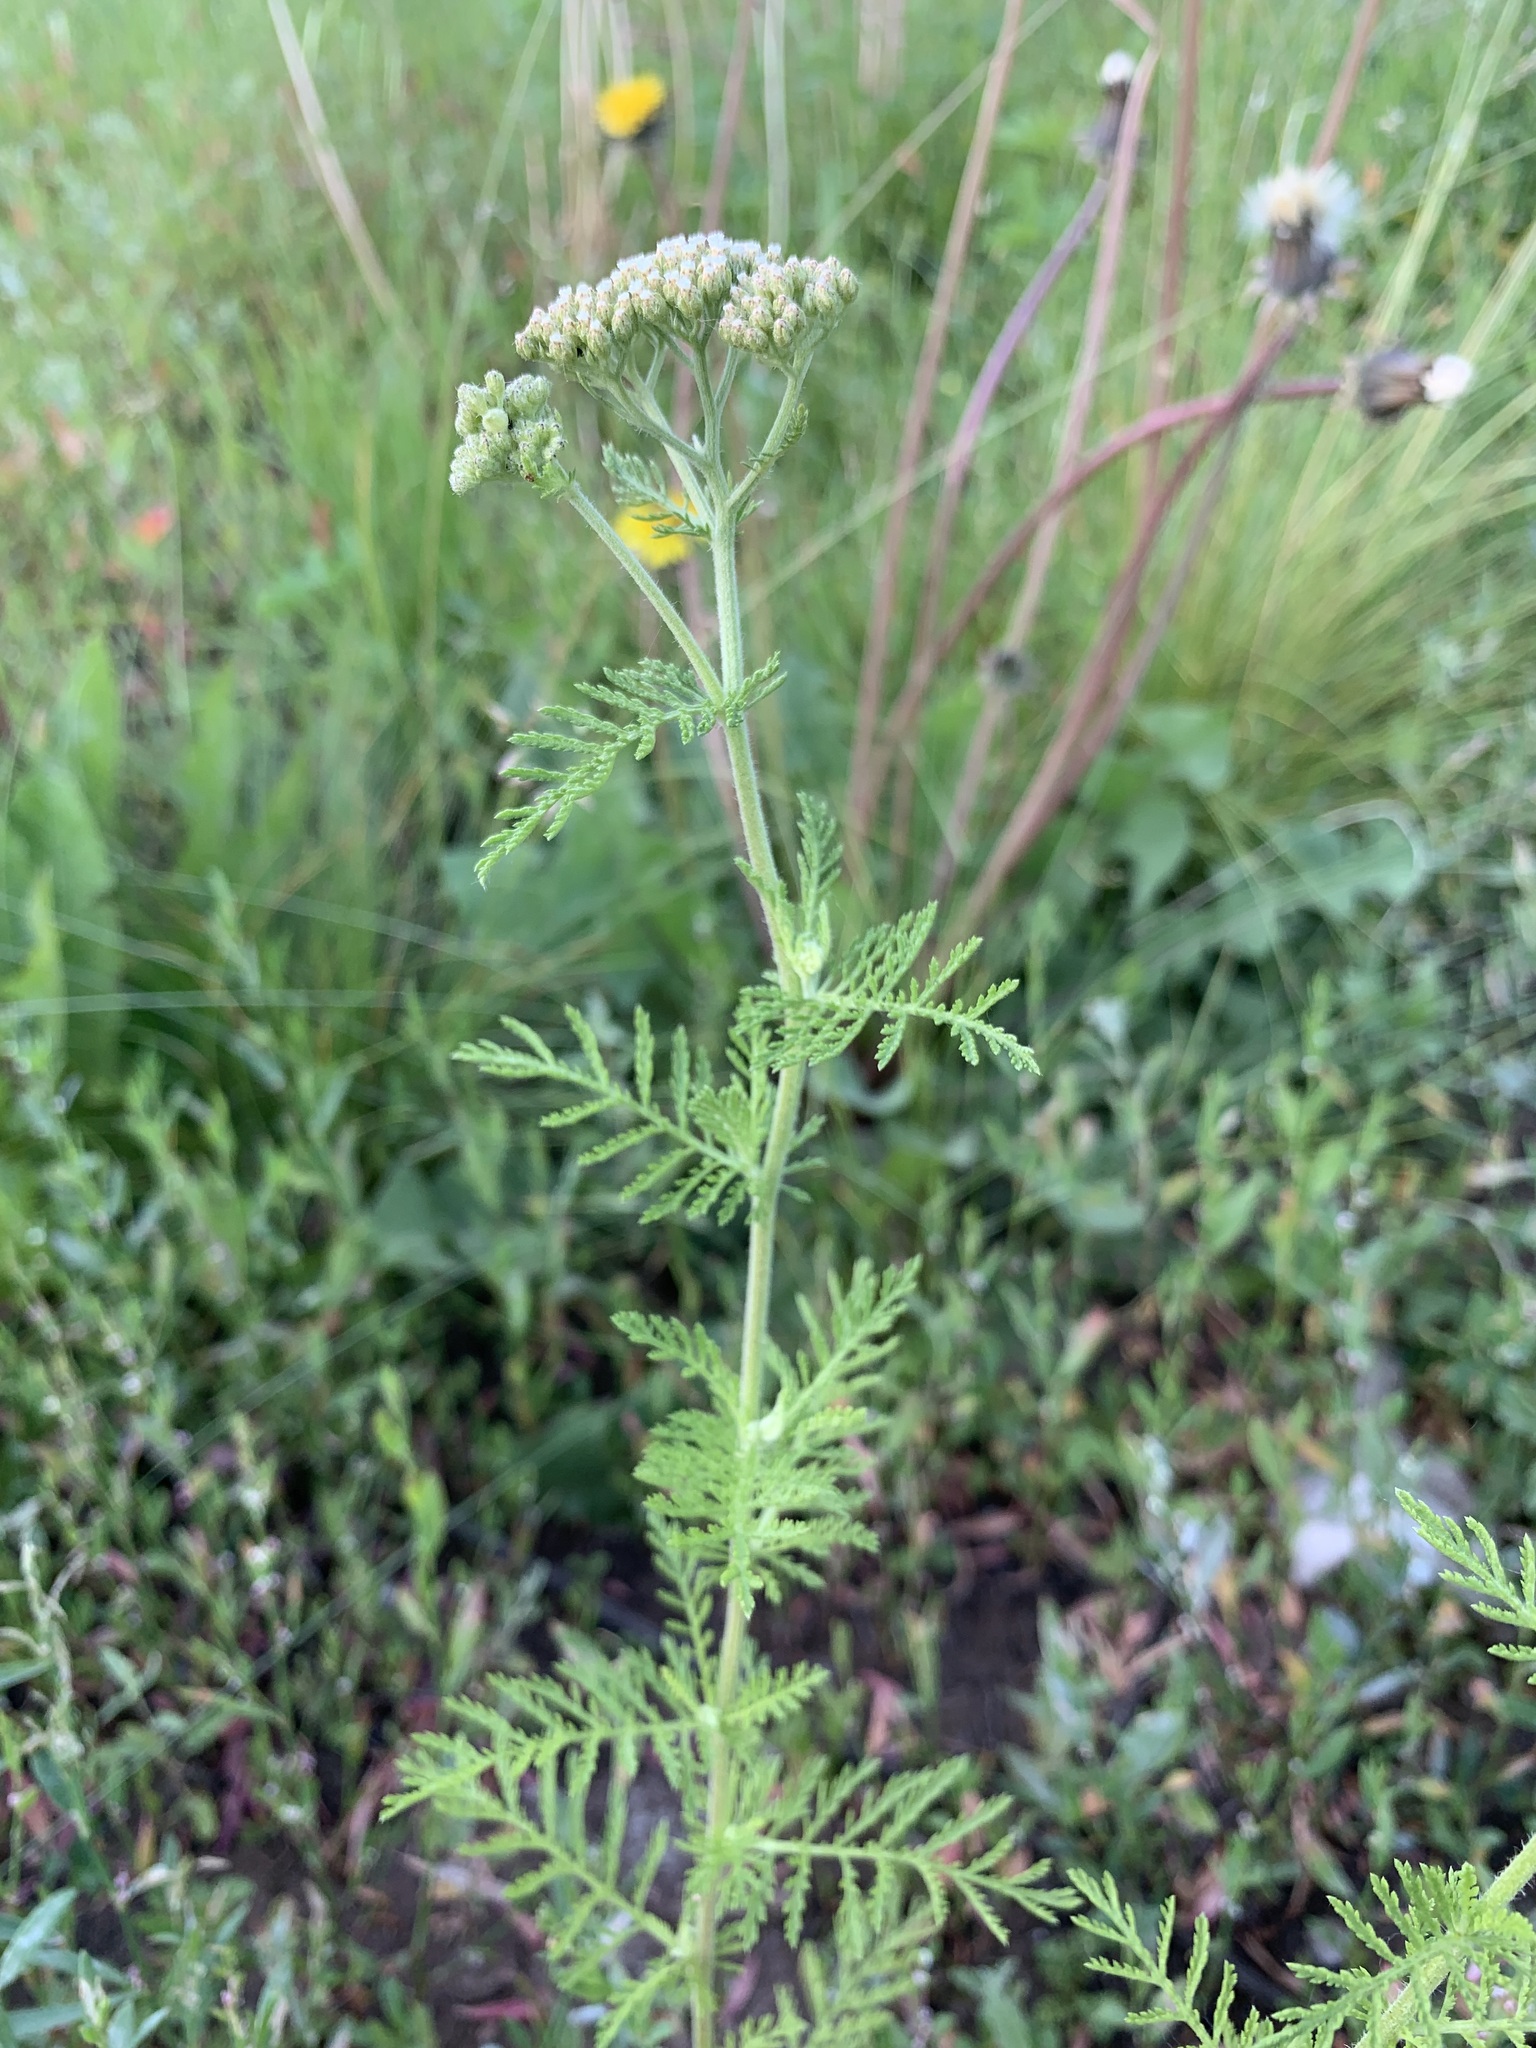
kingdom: Plantae
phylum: Tracheophyta
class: Magnoliopsida
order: Asterales
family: Asteraceae
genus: Achillea
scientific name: Achillea nobilis
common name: Noble yarrow
